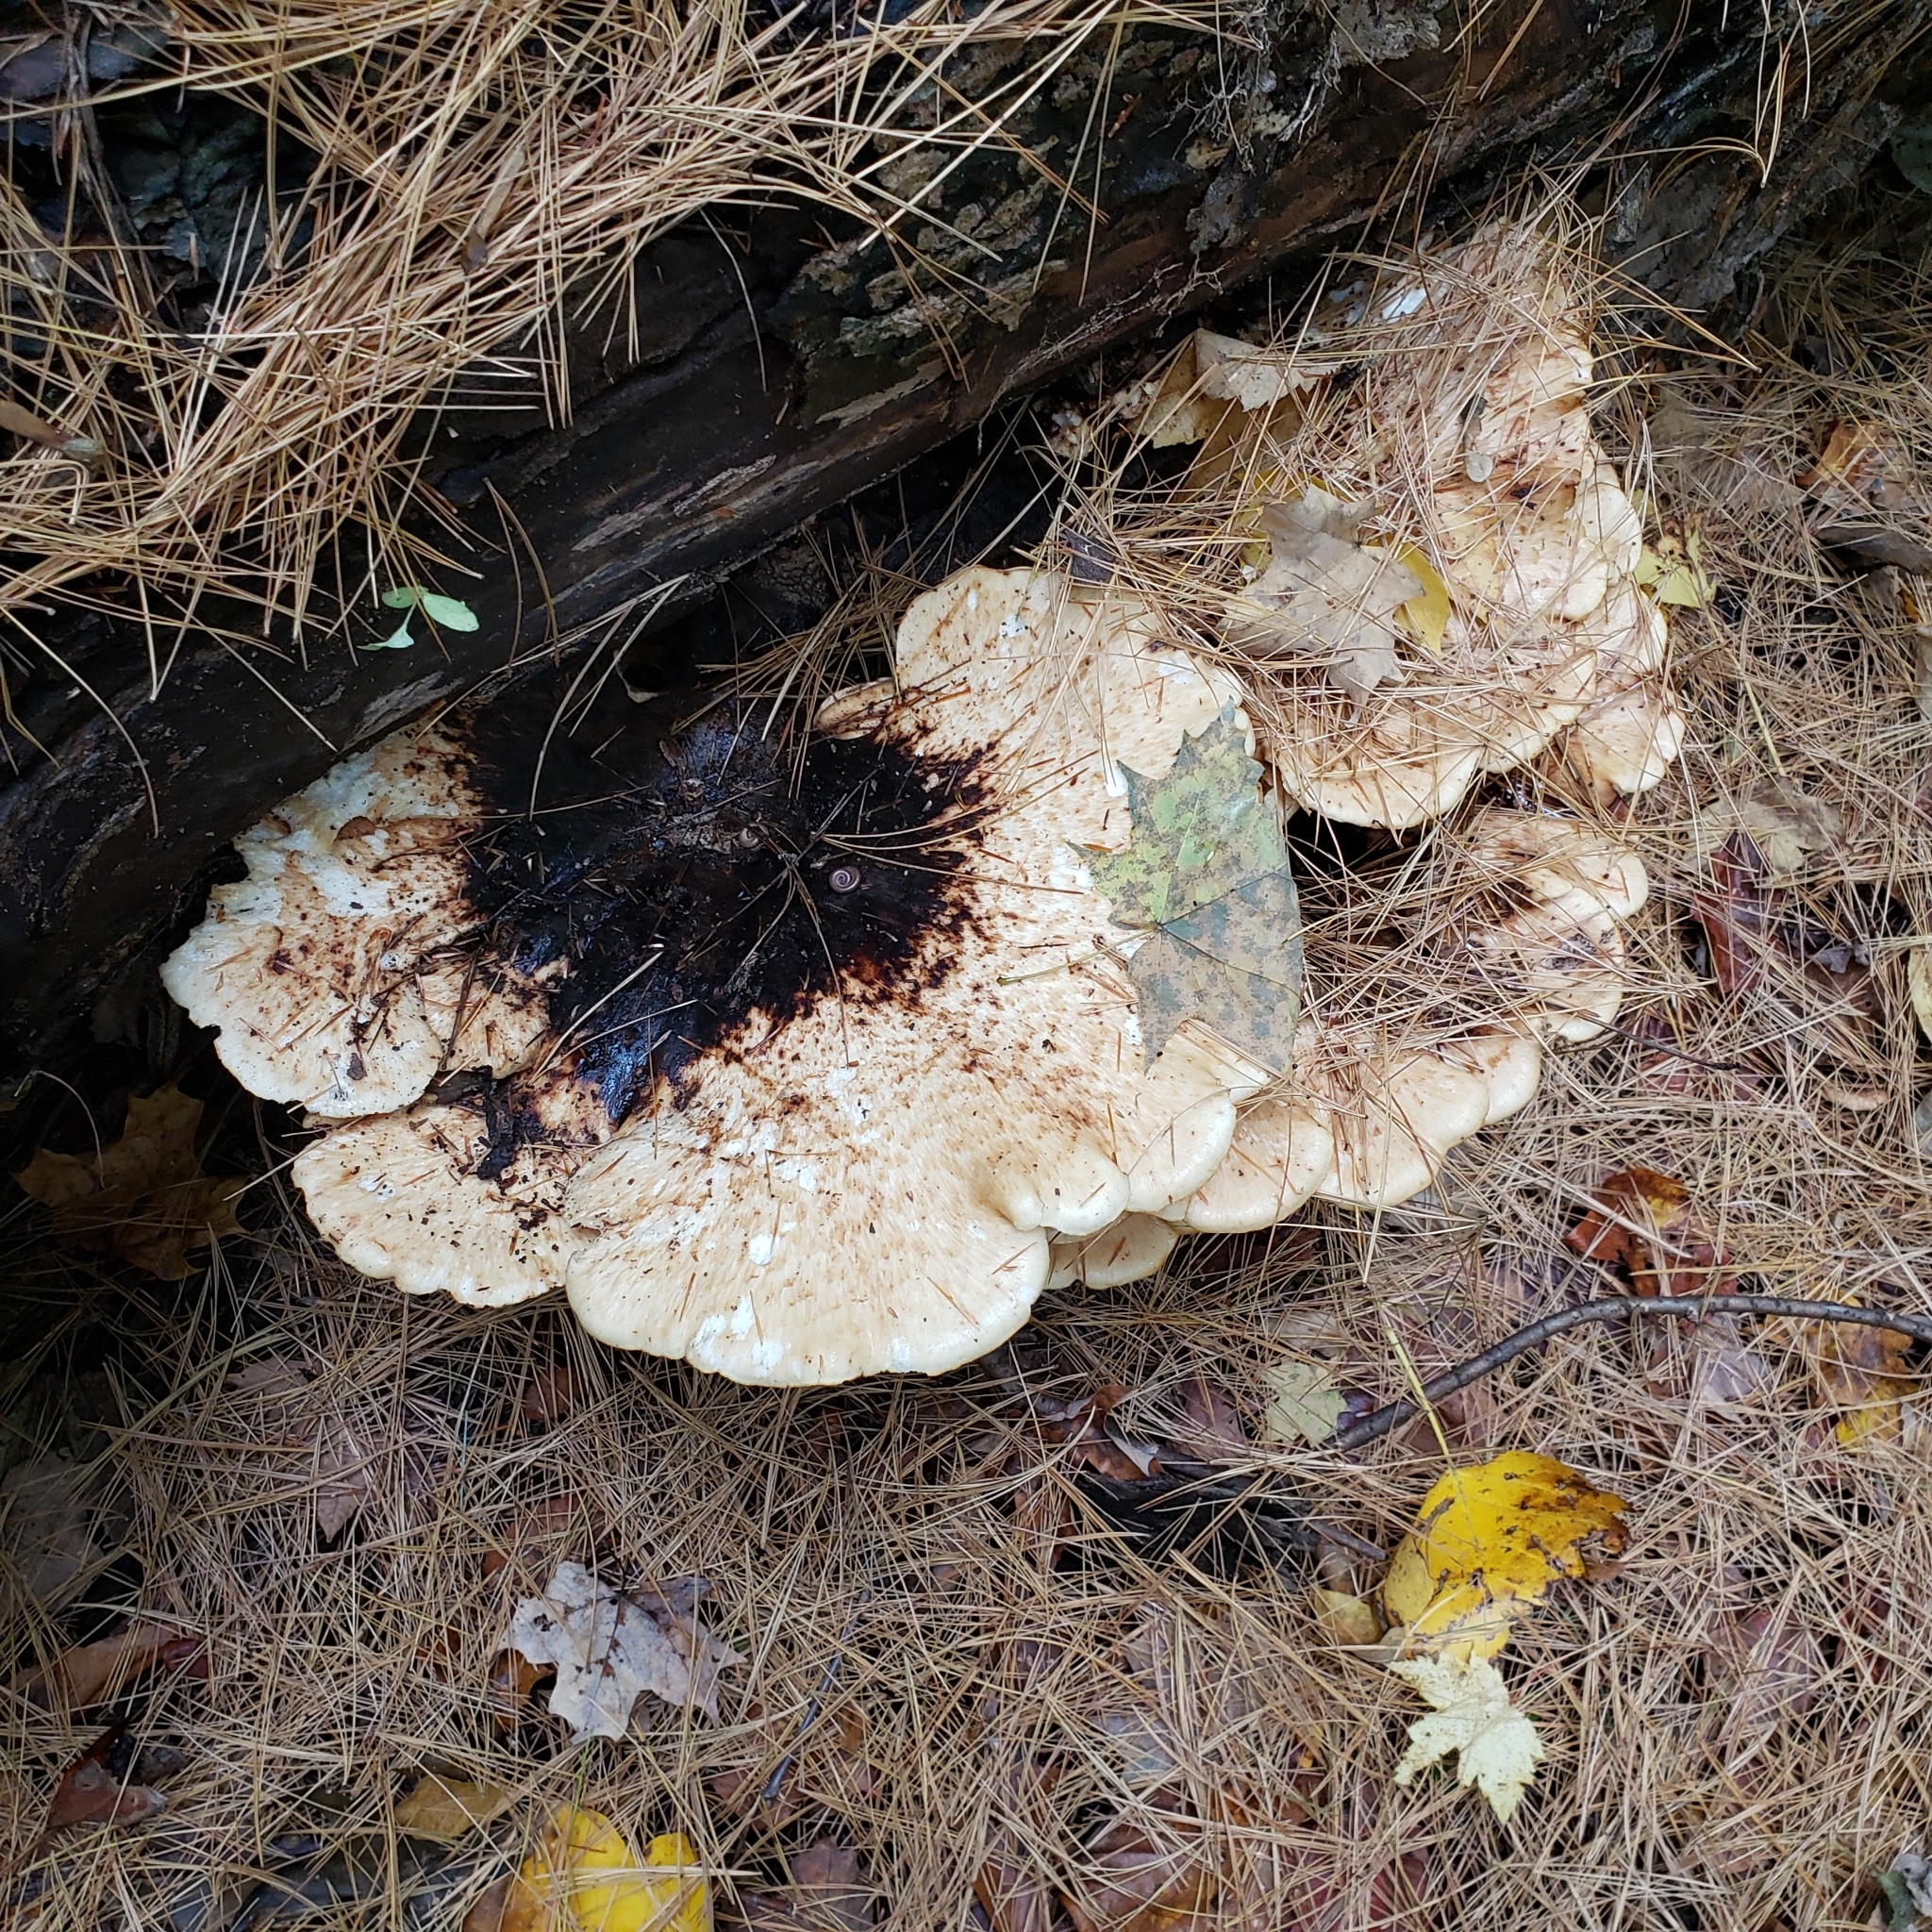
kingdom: Fungi
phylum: Basidiomycota
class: Agaricomycetes
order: Polyporales
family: Polyporaceae
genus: Cerioporus
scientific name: Cerioporus squamosus
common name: Dryad's saddle
